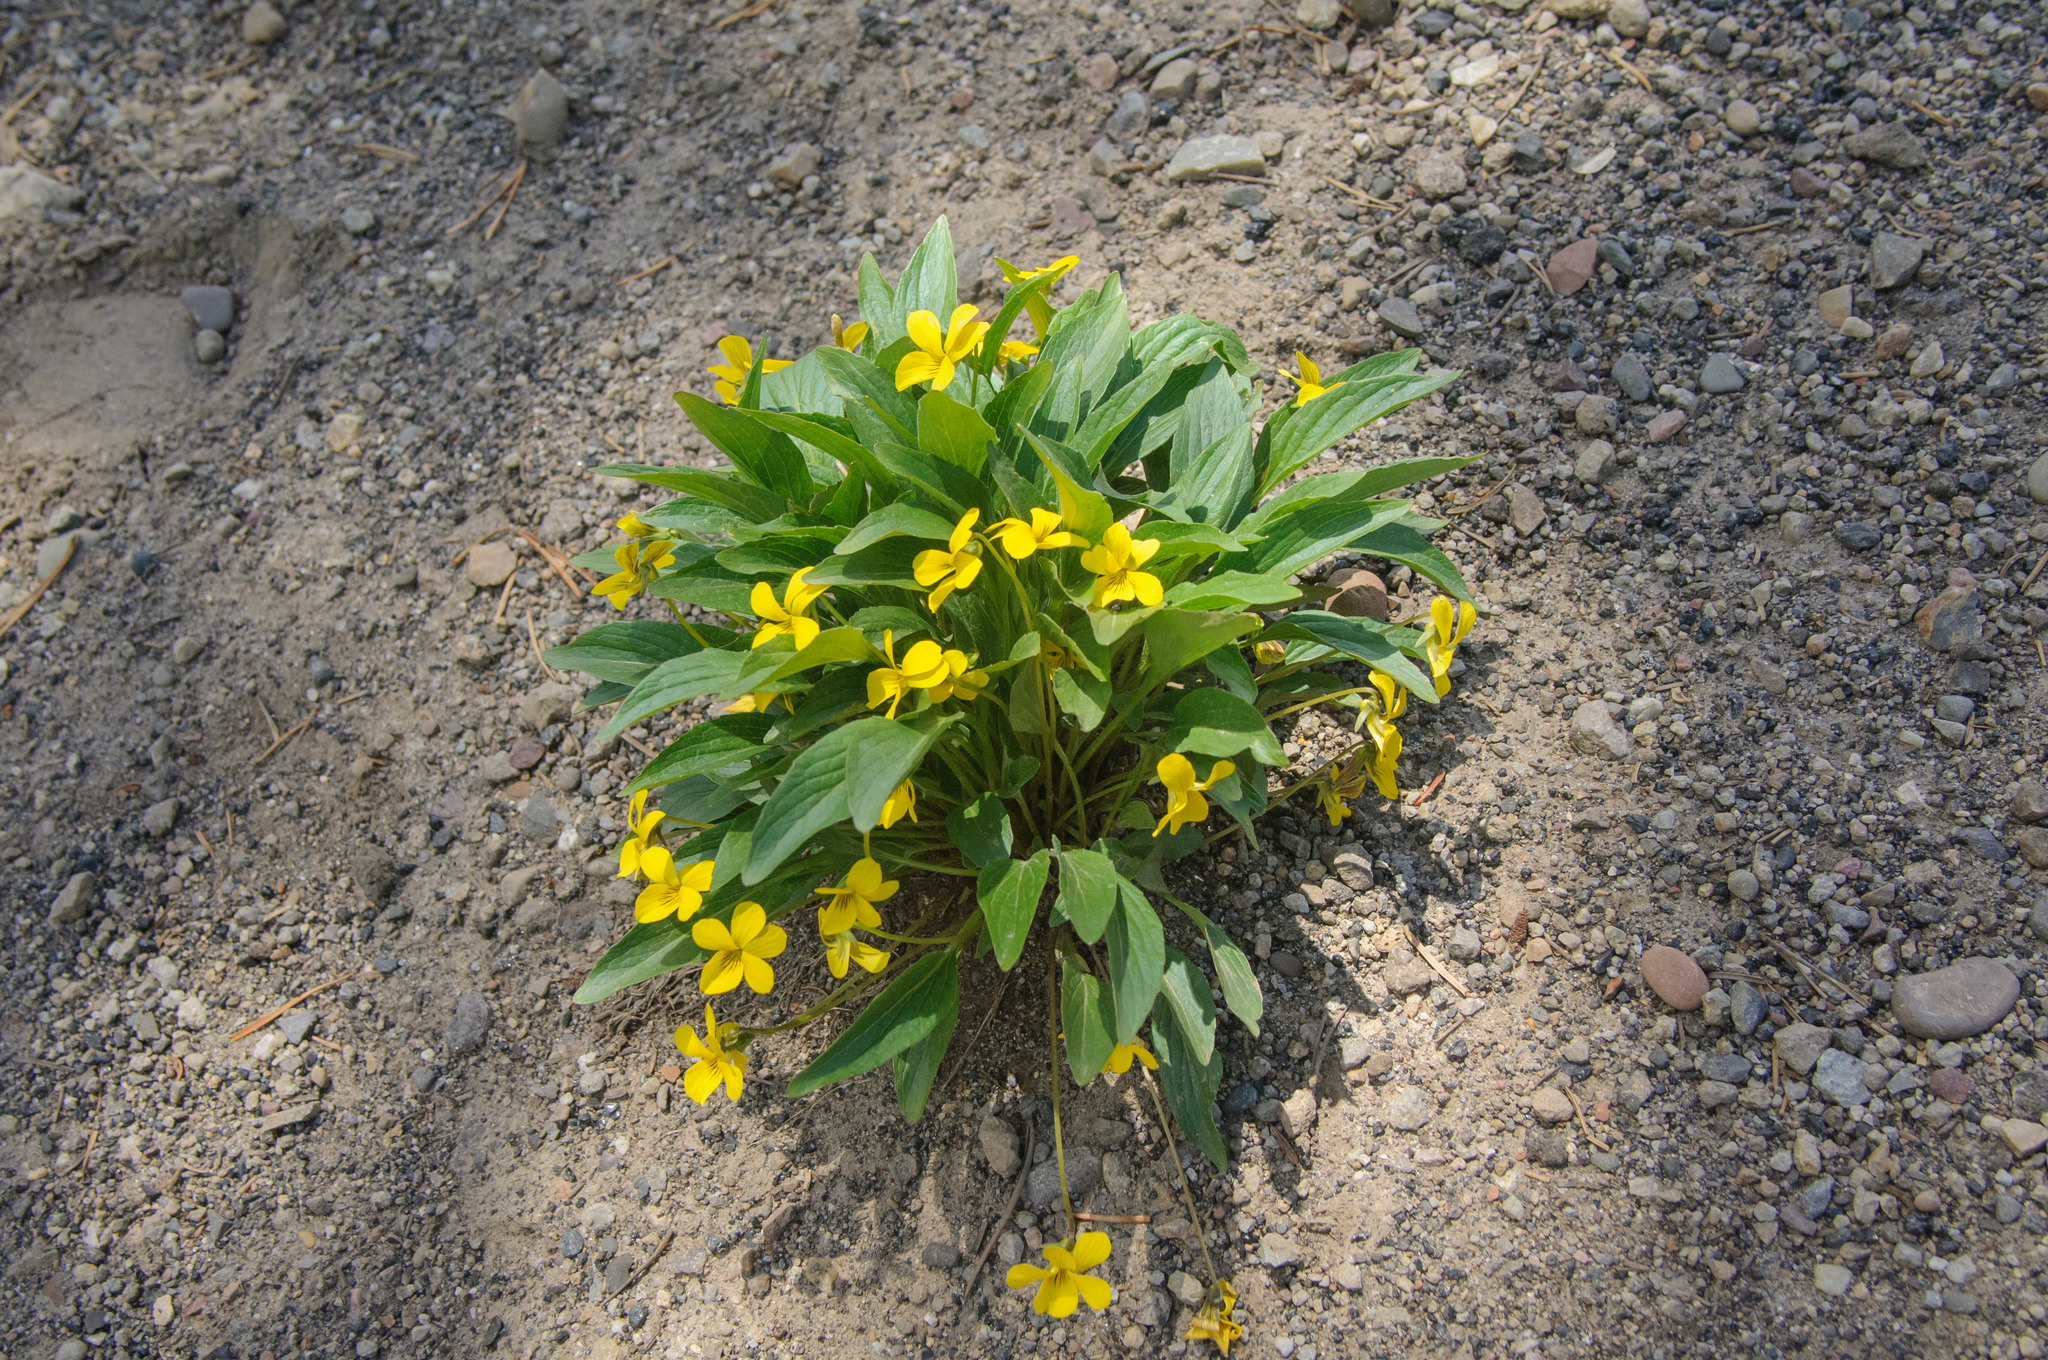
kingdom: Plantae
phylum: Tracheophyta
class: Magnoliopsida
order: Malpighiales
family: Violaceae
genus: Viola
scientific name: Viola nuttallii
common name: Yellow prairie violet
